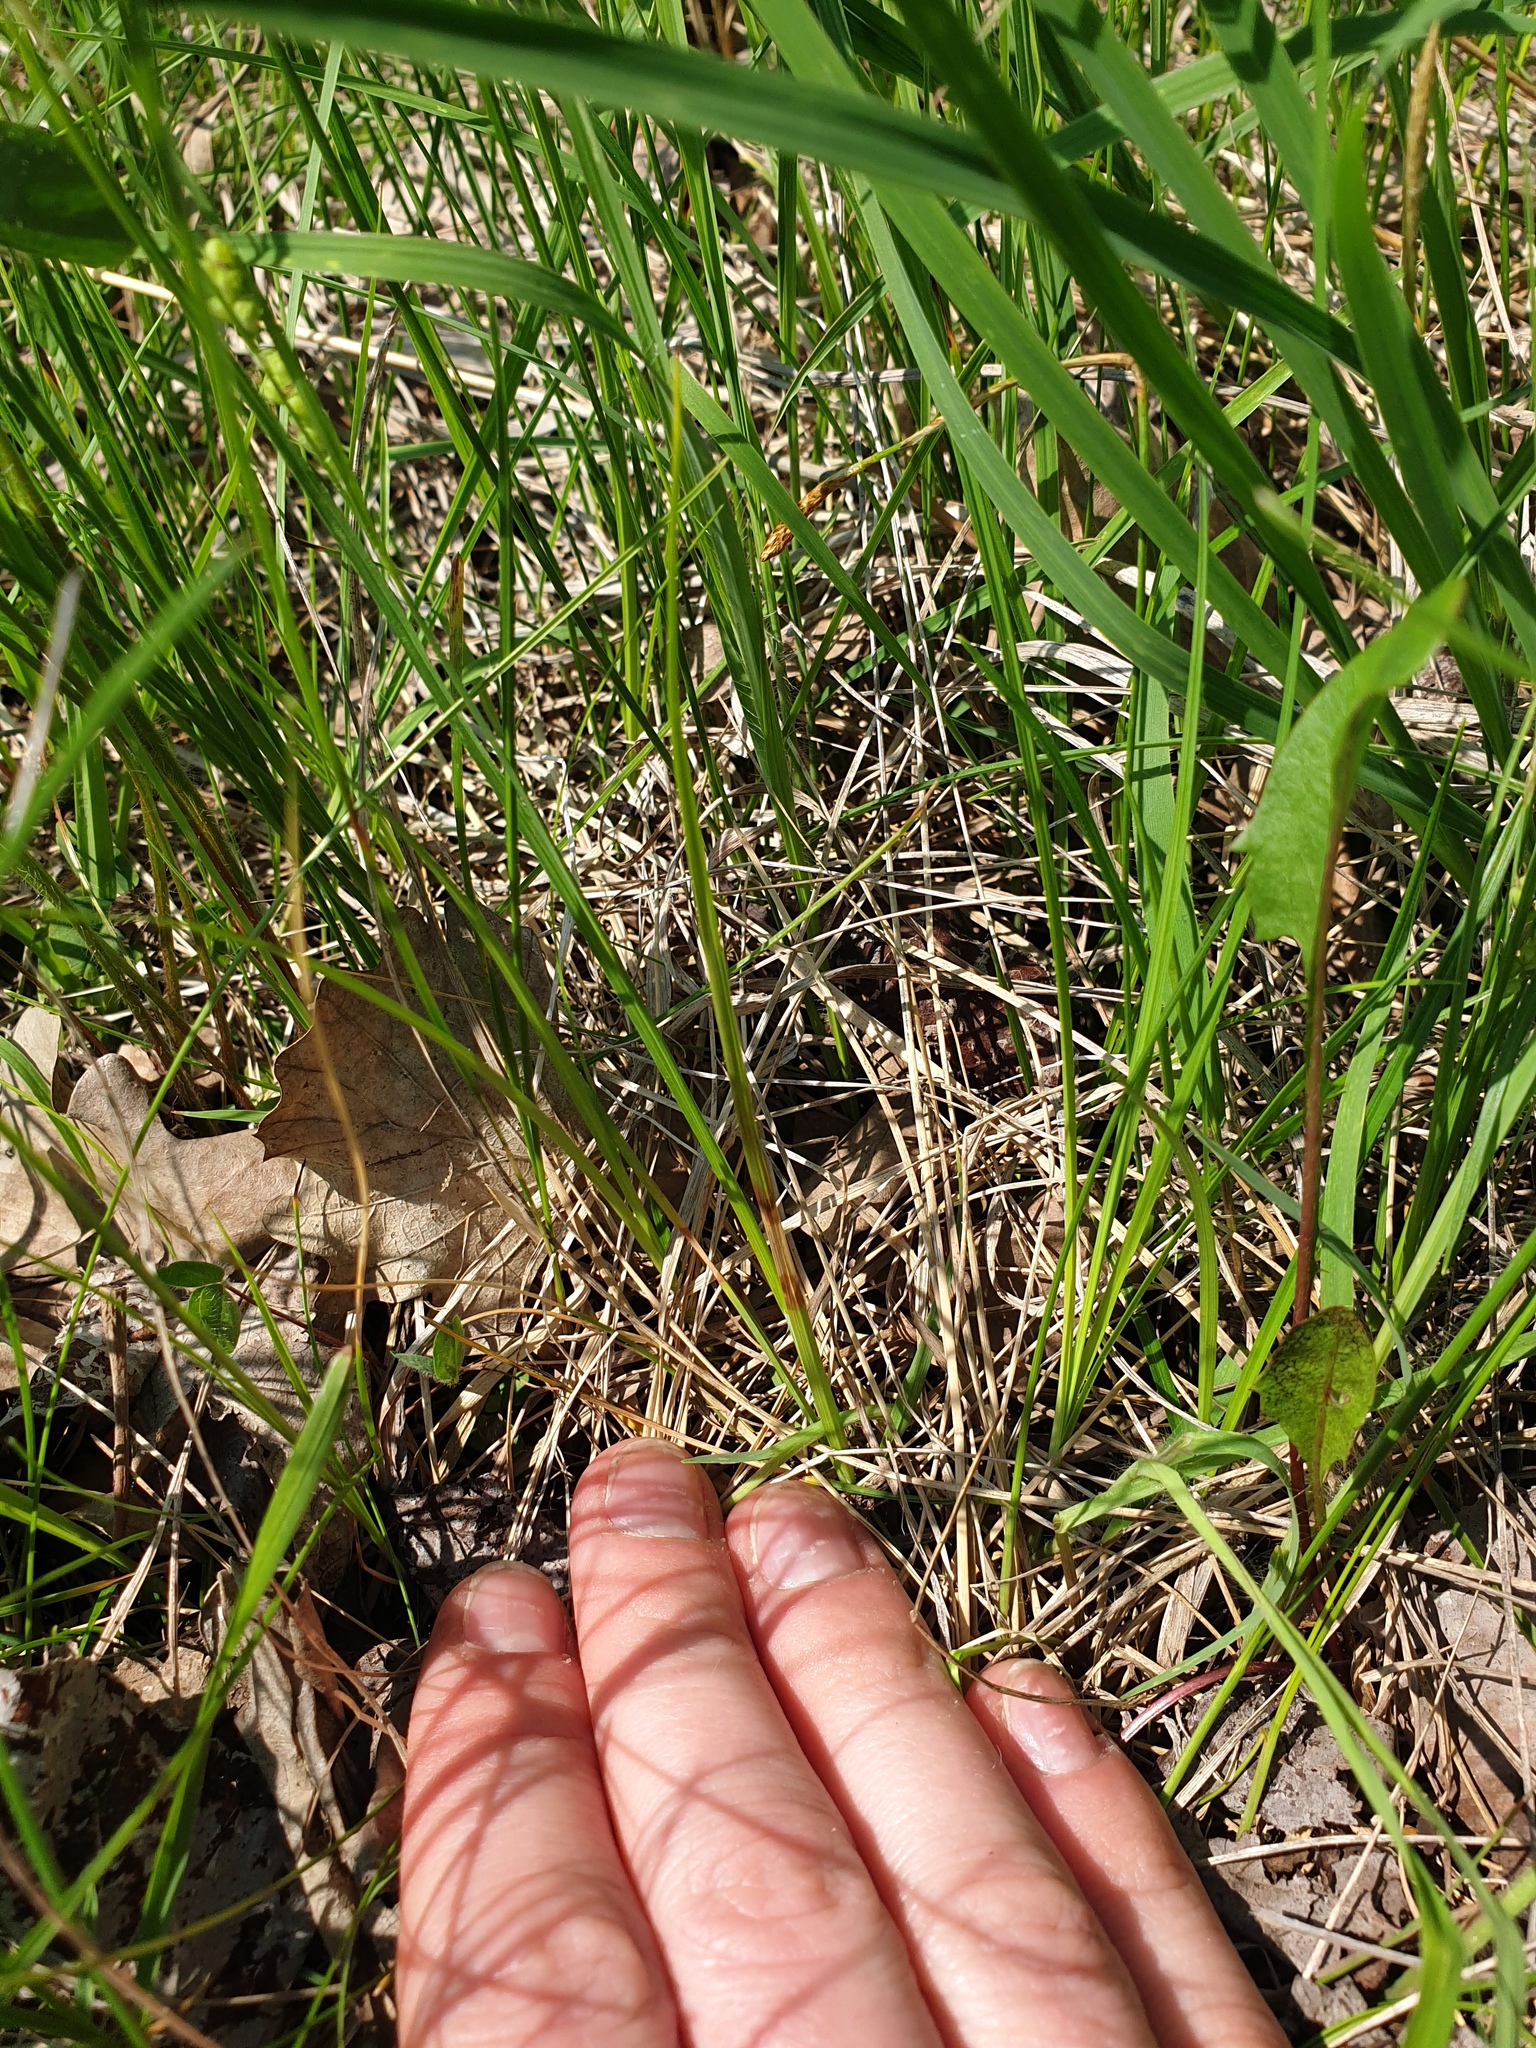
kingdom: Plantae
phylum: Tracheophyta
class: Liliopsida
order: Poales
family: Cyperaceae
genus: Carex
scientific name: Carex aurea
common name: Golden sedge
